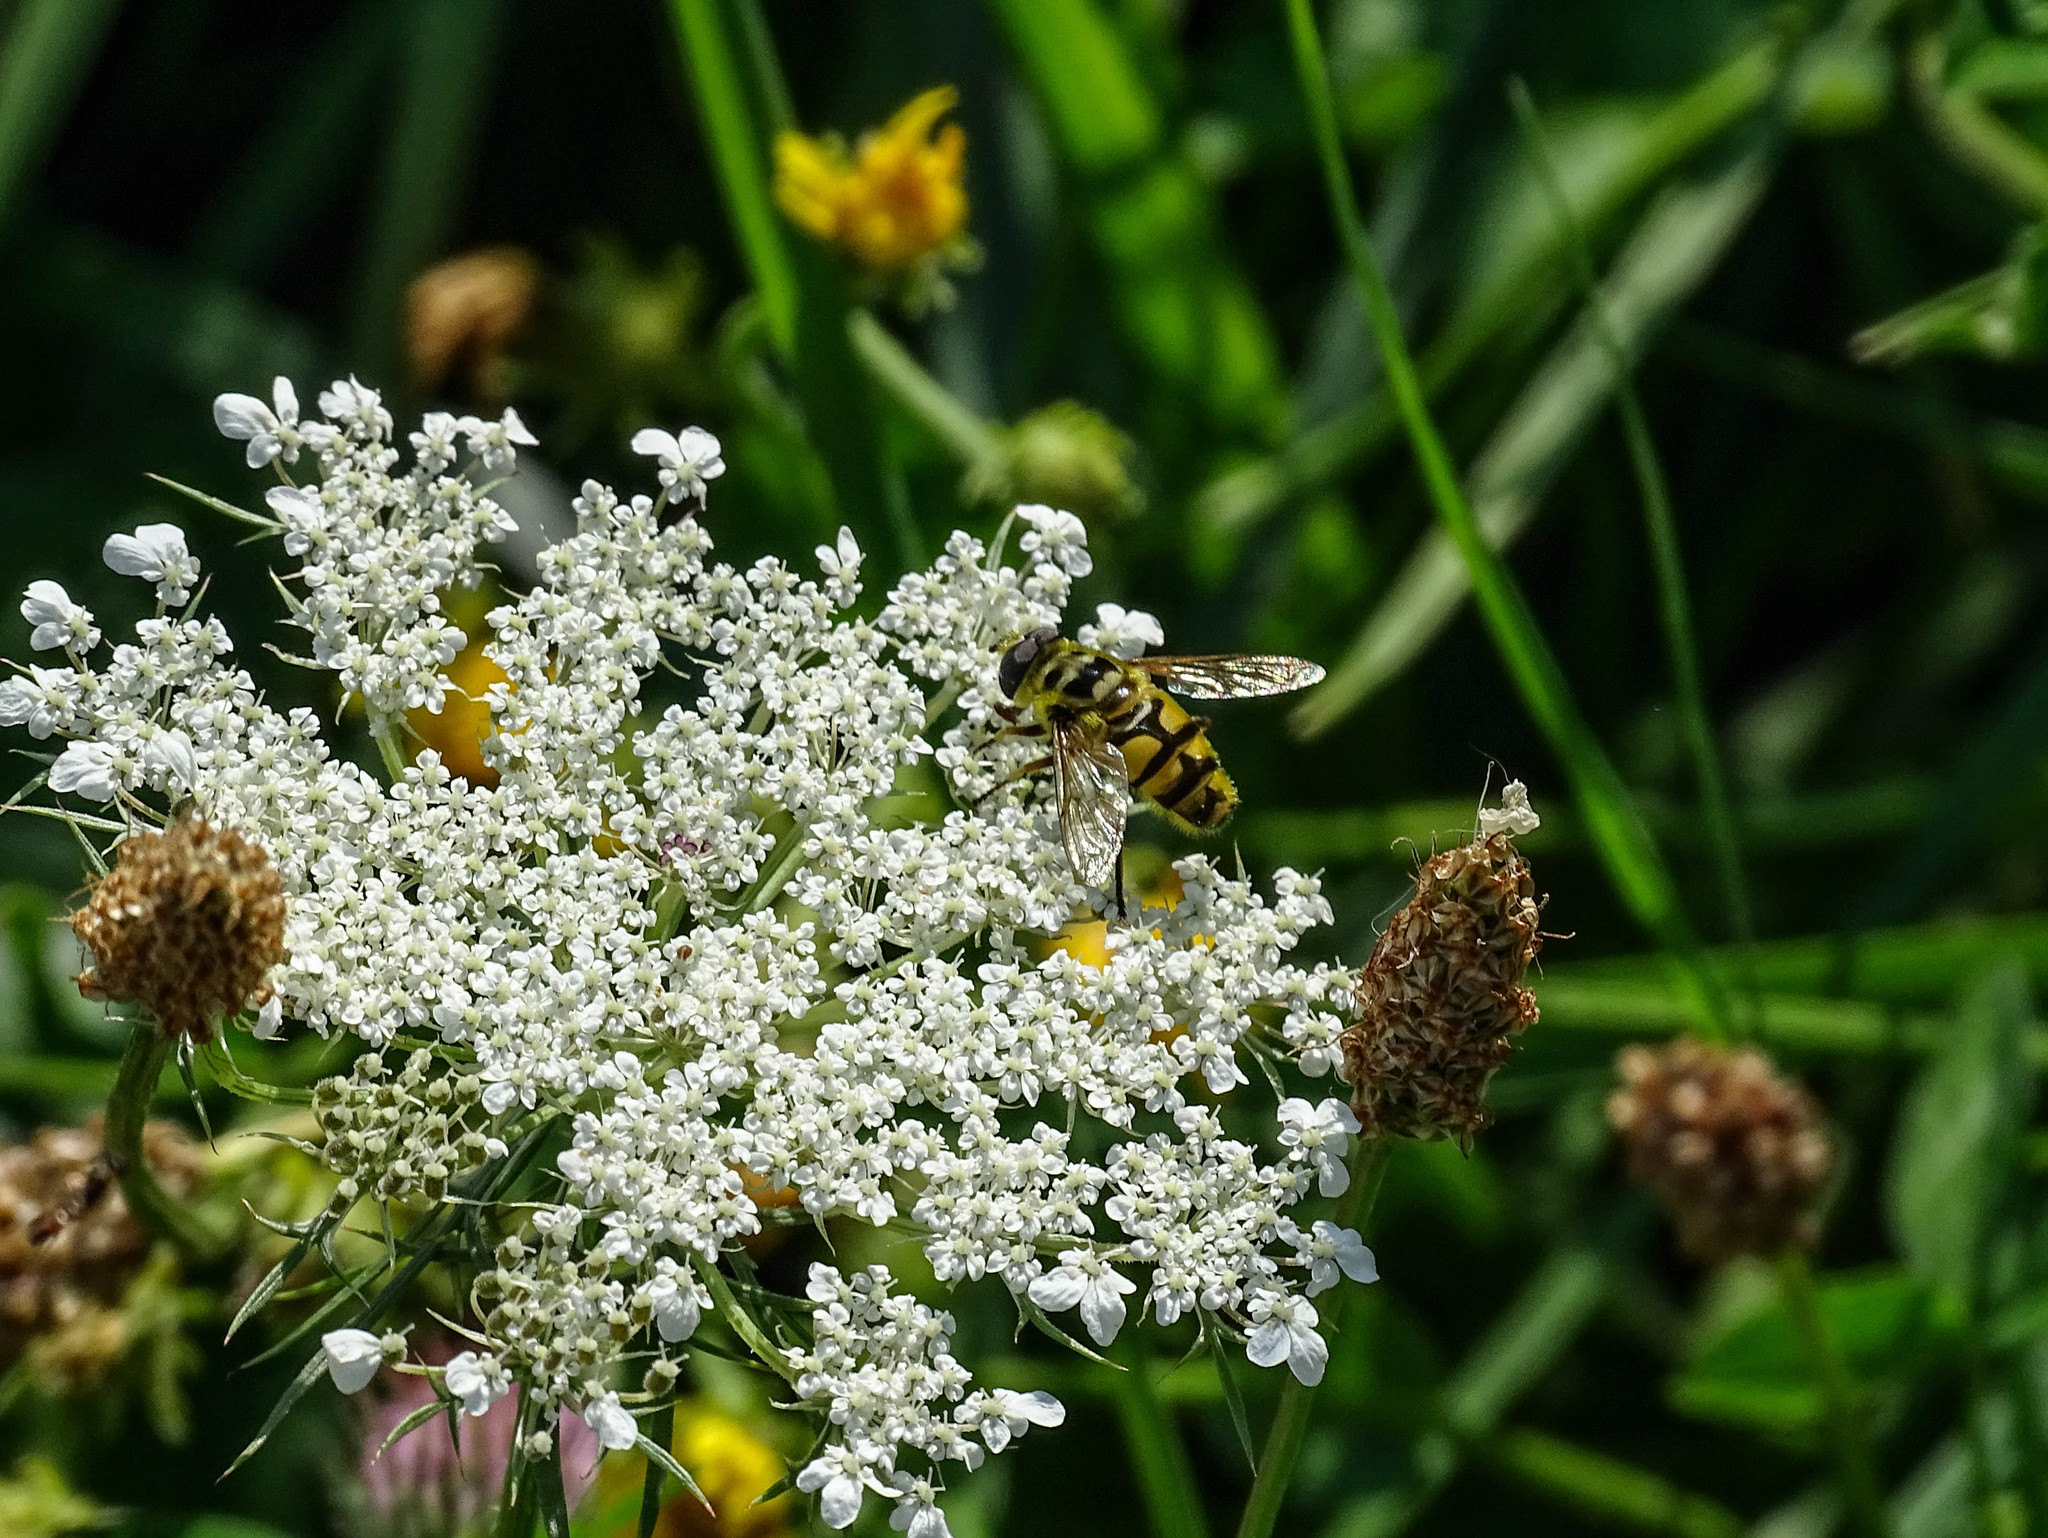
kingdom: Animalia
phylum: Arthropoda
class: Insecta
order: Diptera
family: Syrphidae
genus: Myathropa
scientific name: Myathropa florea
